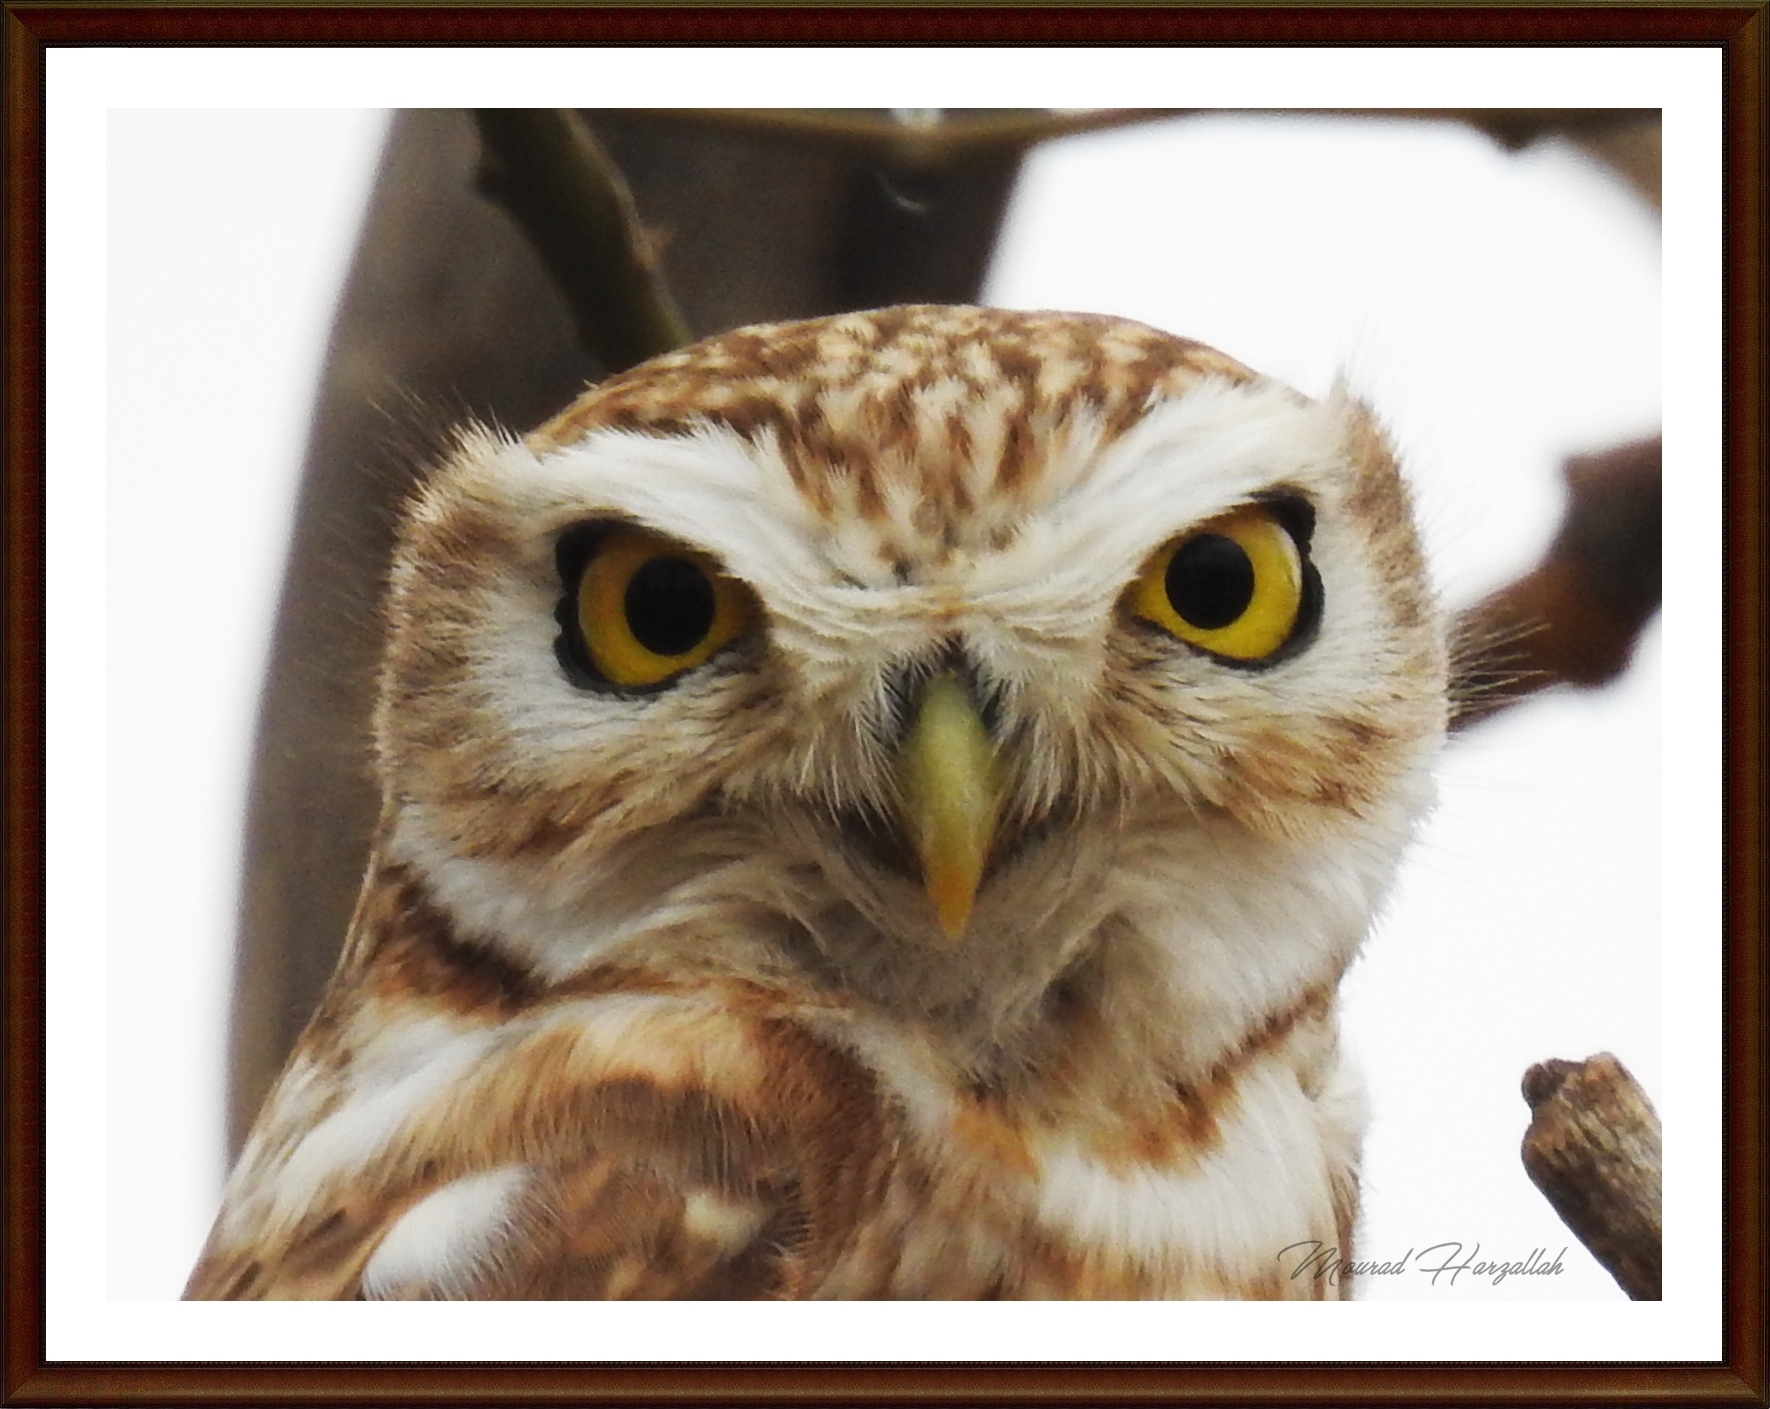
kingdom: Animalia
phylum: Chordata
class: Aves
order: Strigiformes
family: Strigidae
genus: Athene
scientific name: Athene noctua
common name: Little owl
